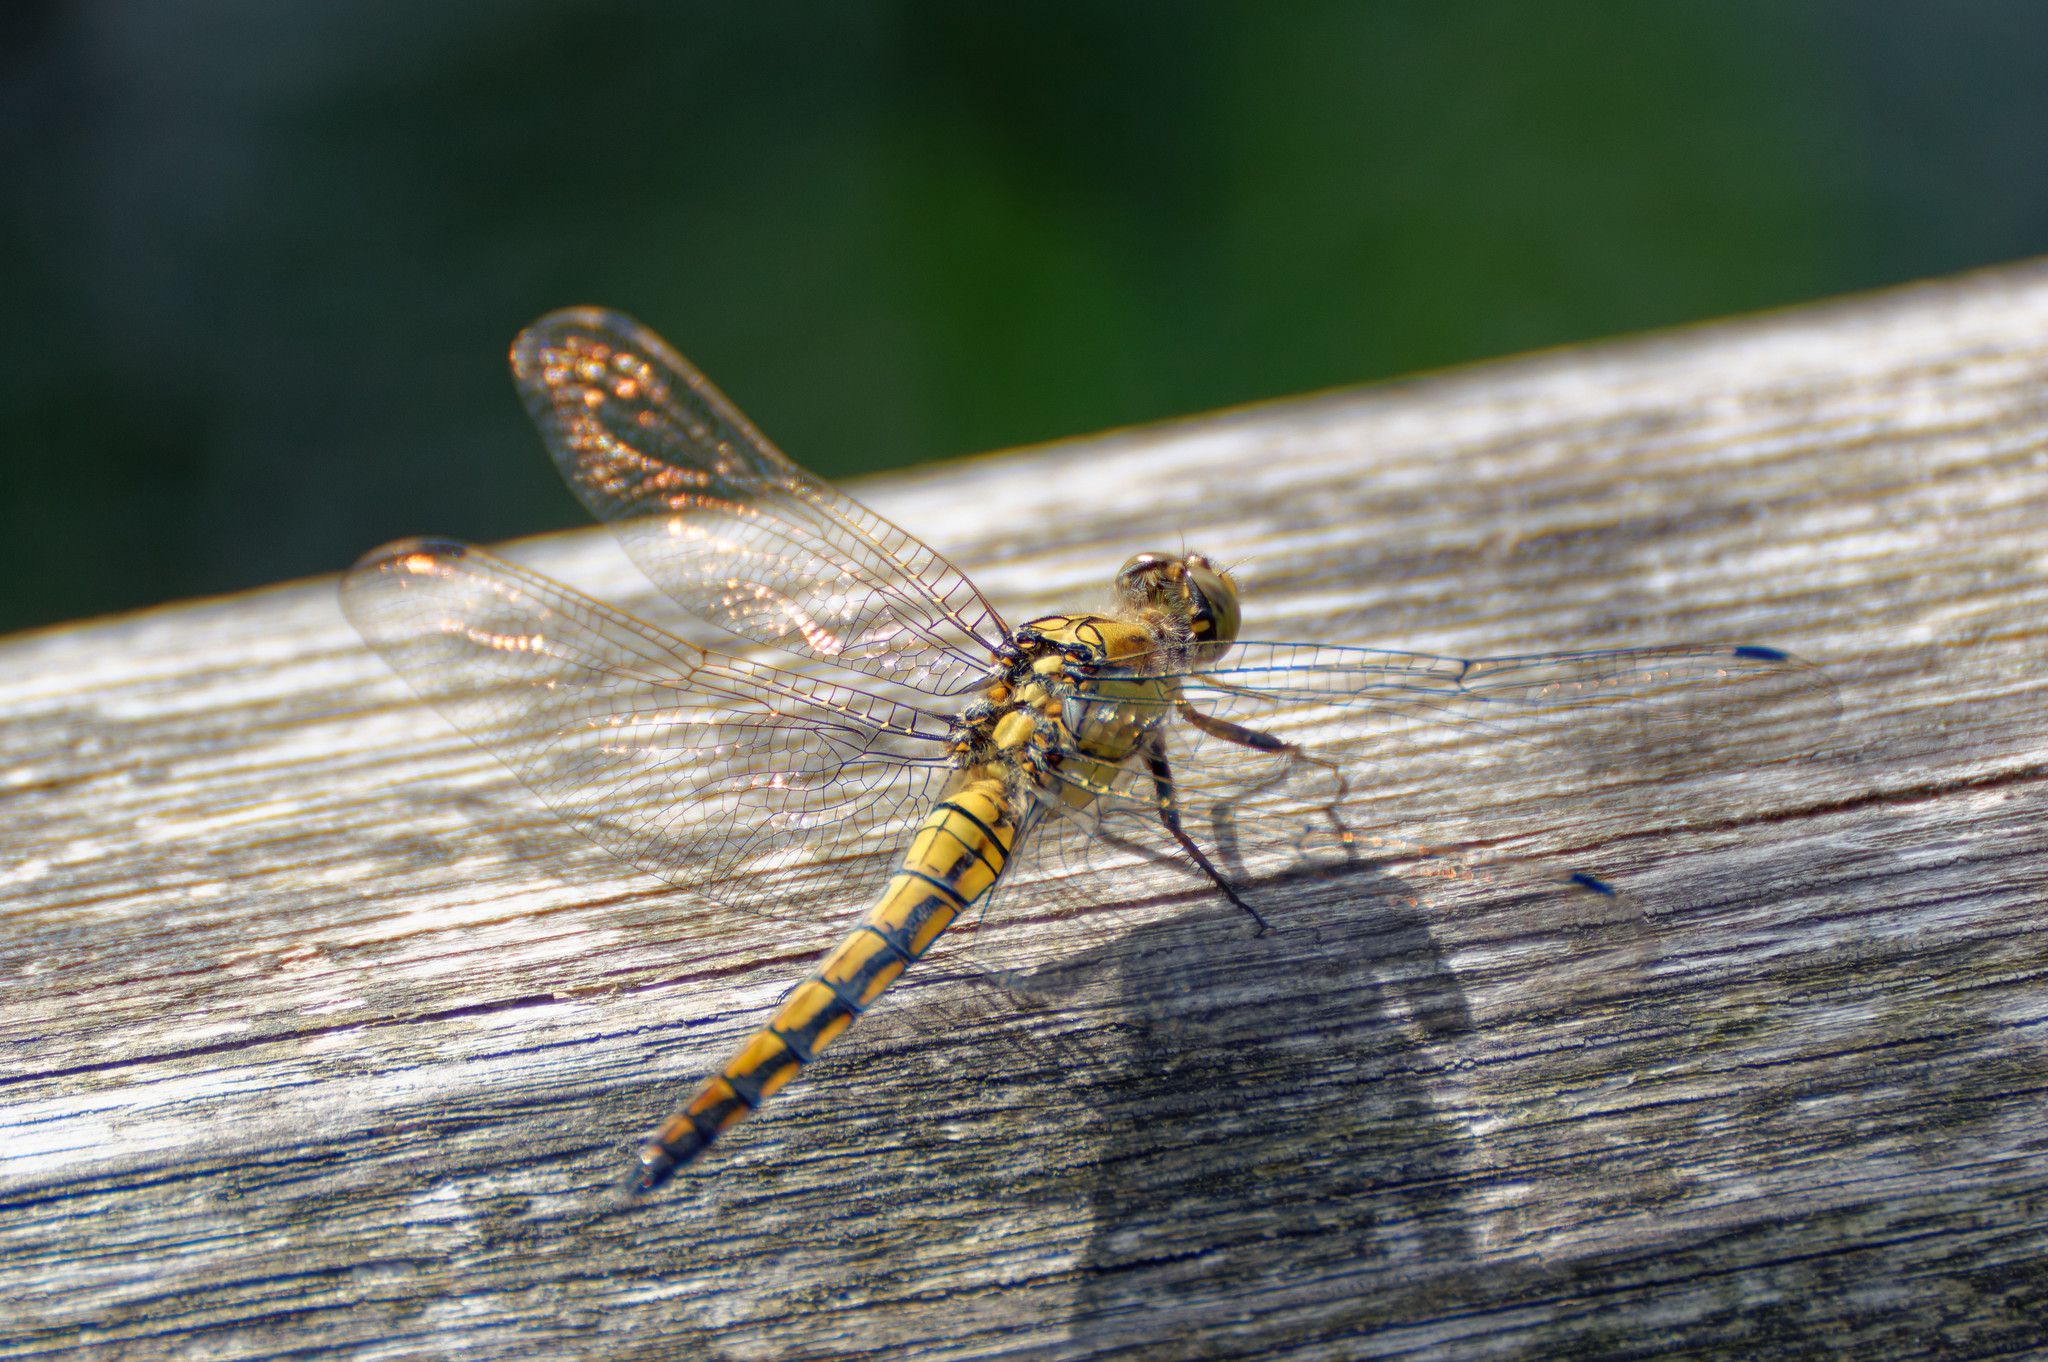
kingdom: Animalia
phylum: Arthropoda
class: Insecta
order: Odonata
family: Libellulidae
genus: Orthetrum
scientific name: Orthetrum cancellatum
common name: Black-tailed skimmer
